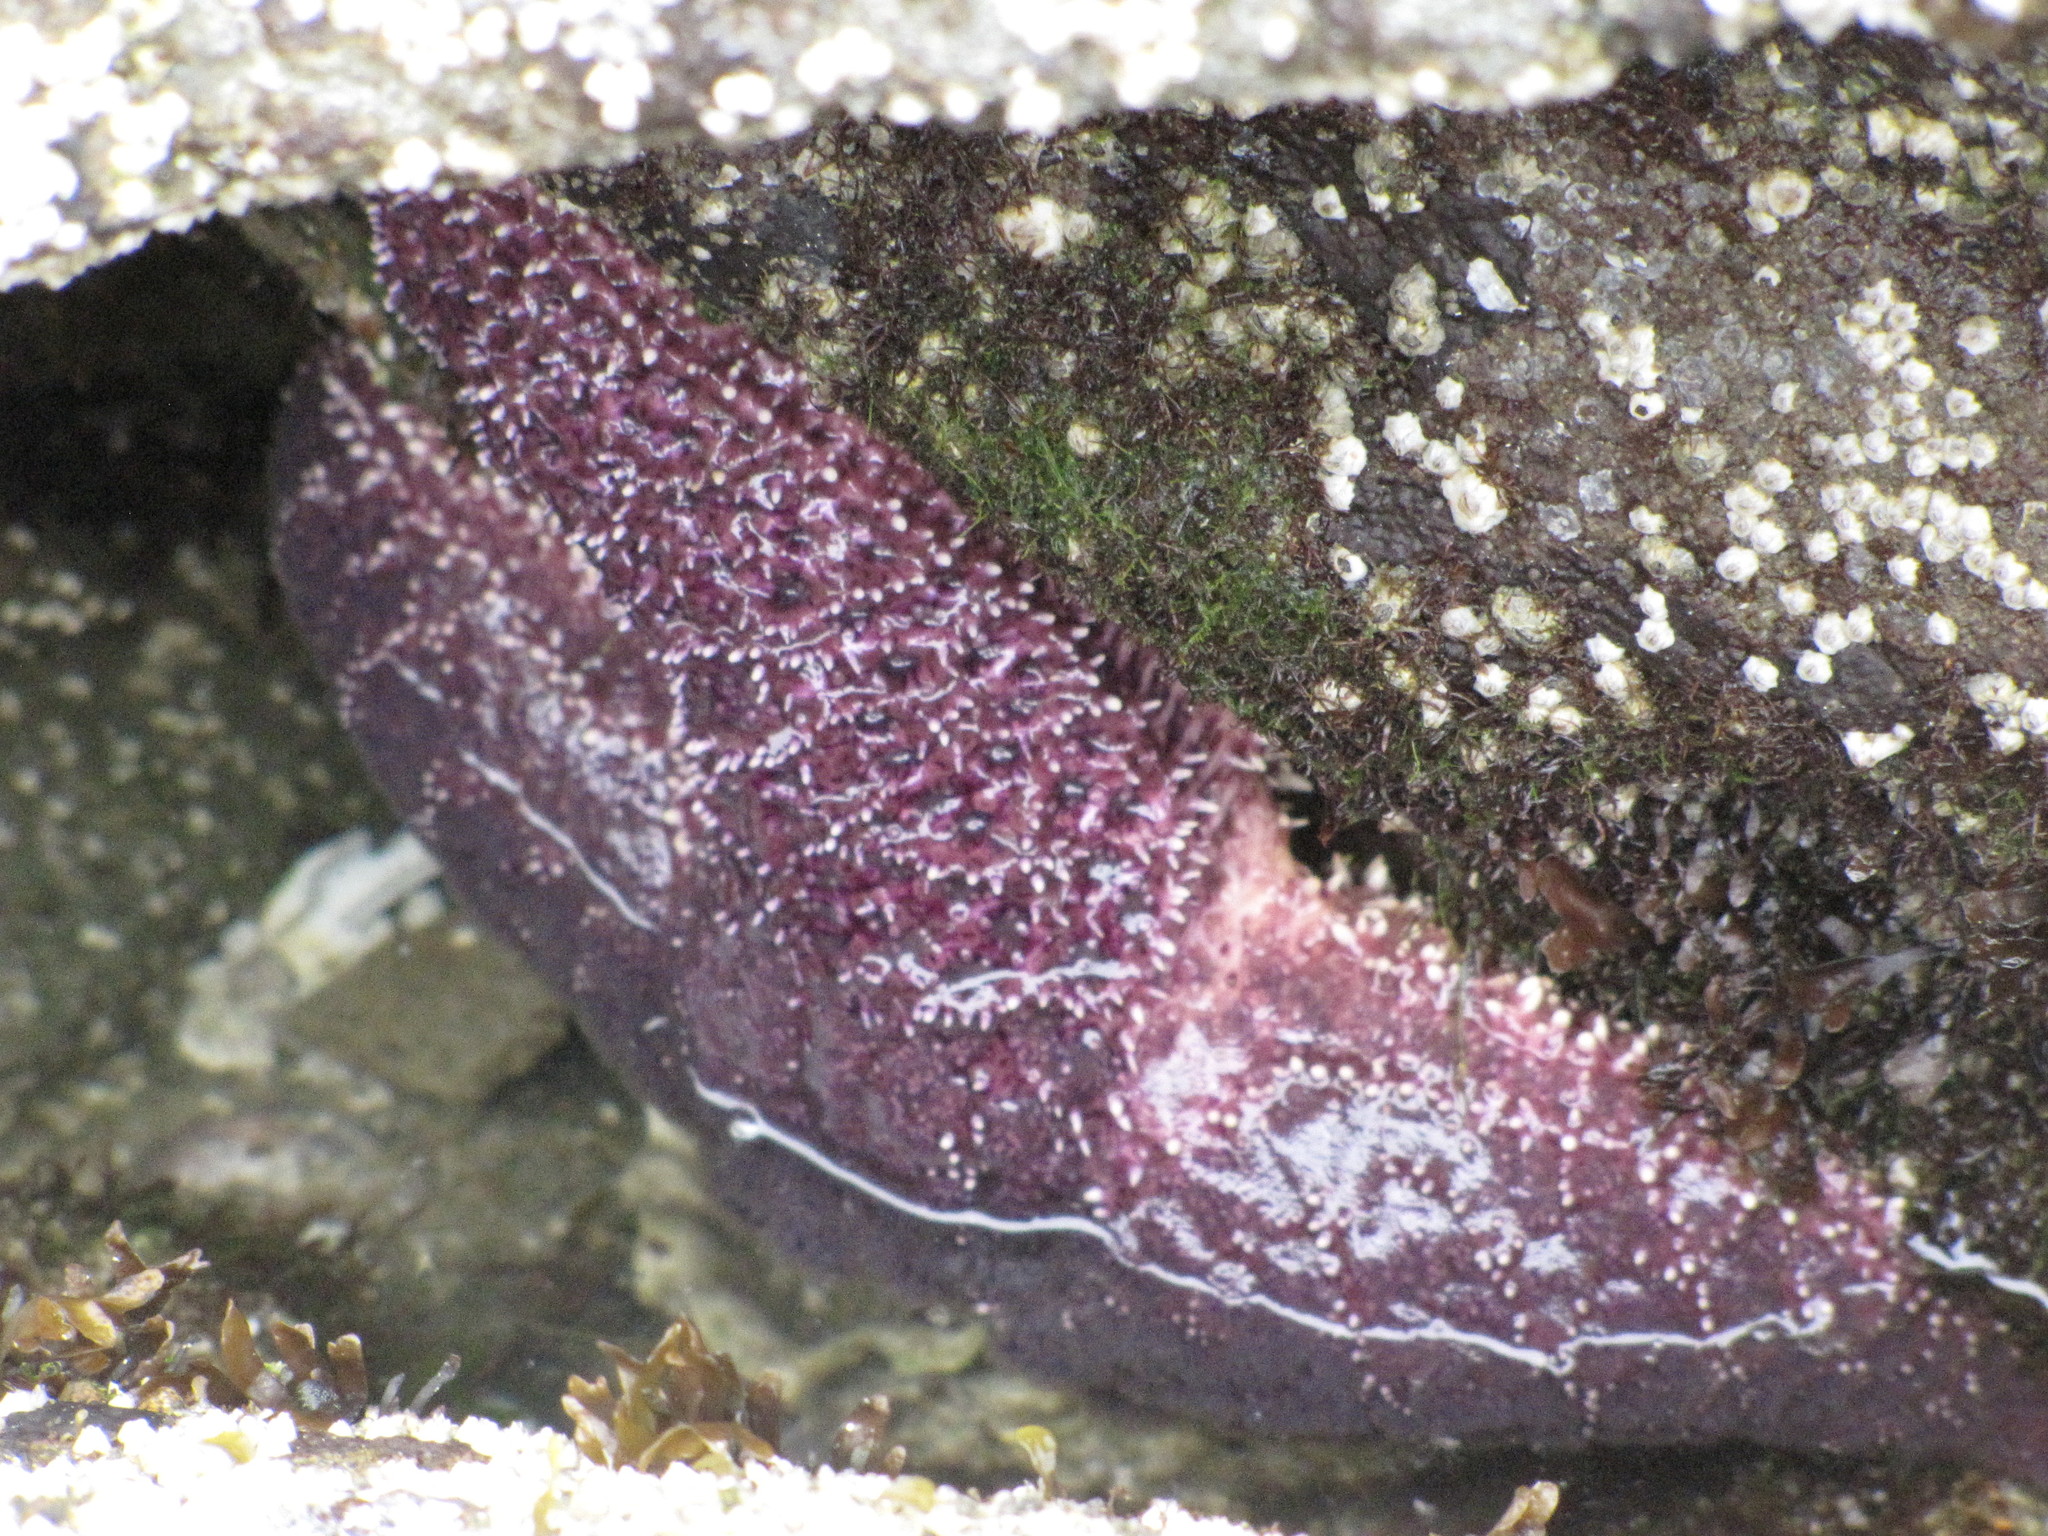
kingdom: Animalia
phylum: Echinodermata
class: Asteroidea
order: Forcipulatida
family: Asteriidae
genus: Pisaster
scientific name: Pisaster ochraceus
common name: Ochre stars
